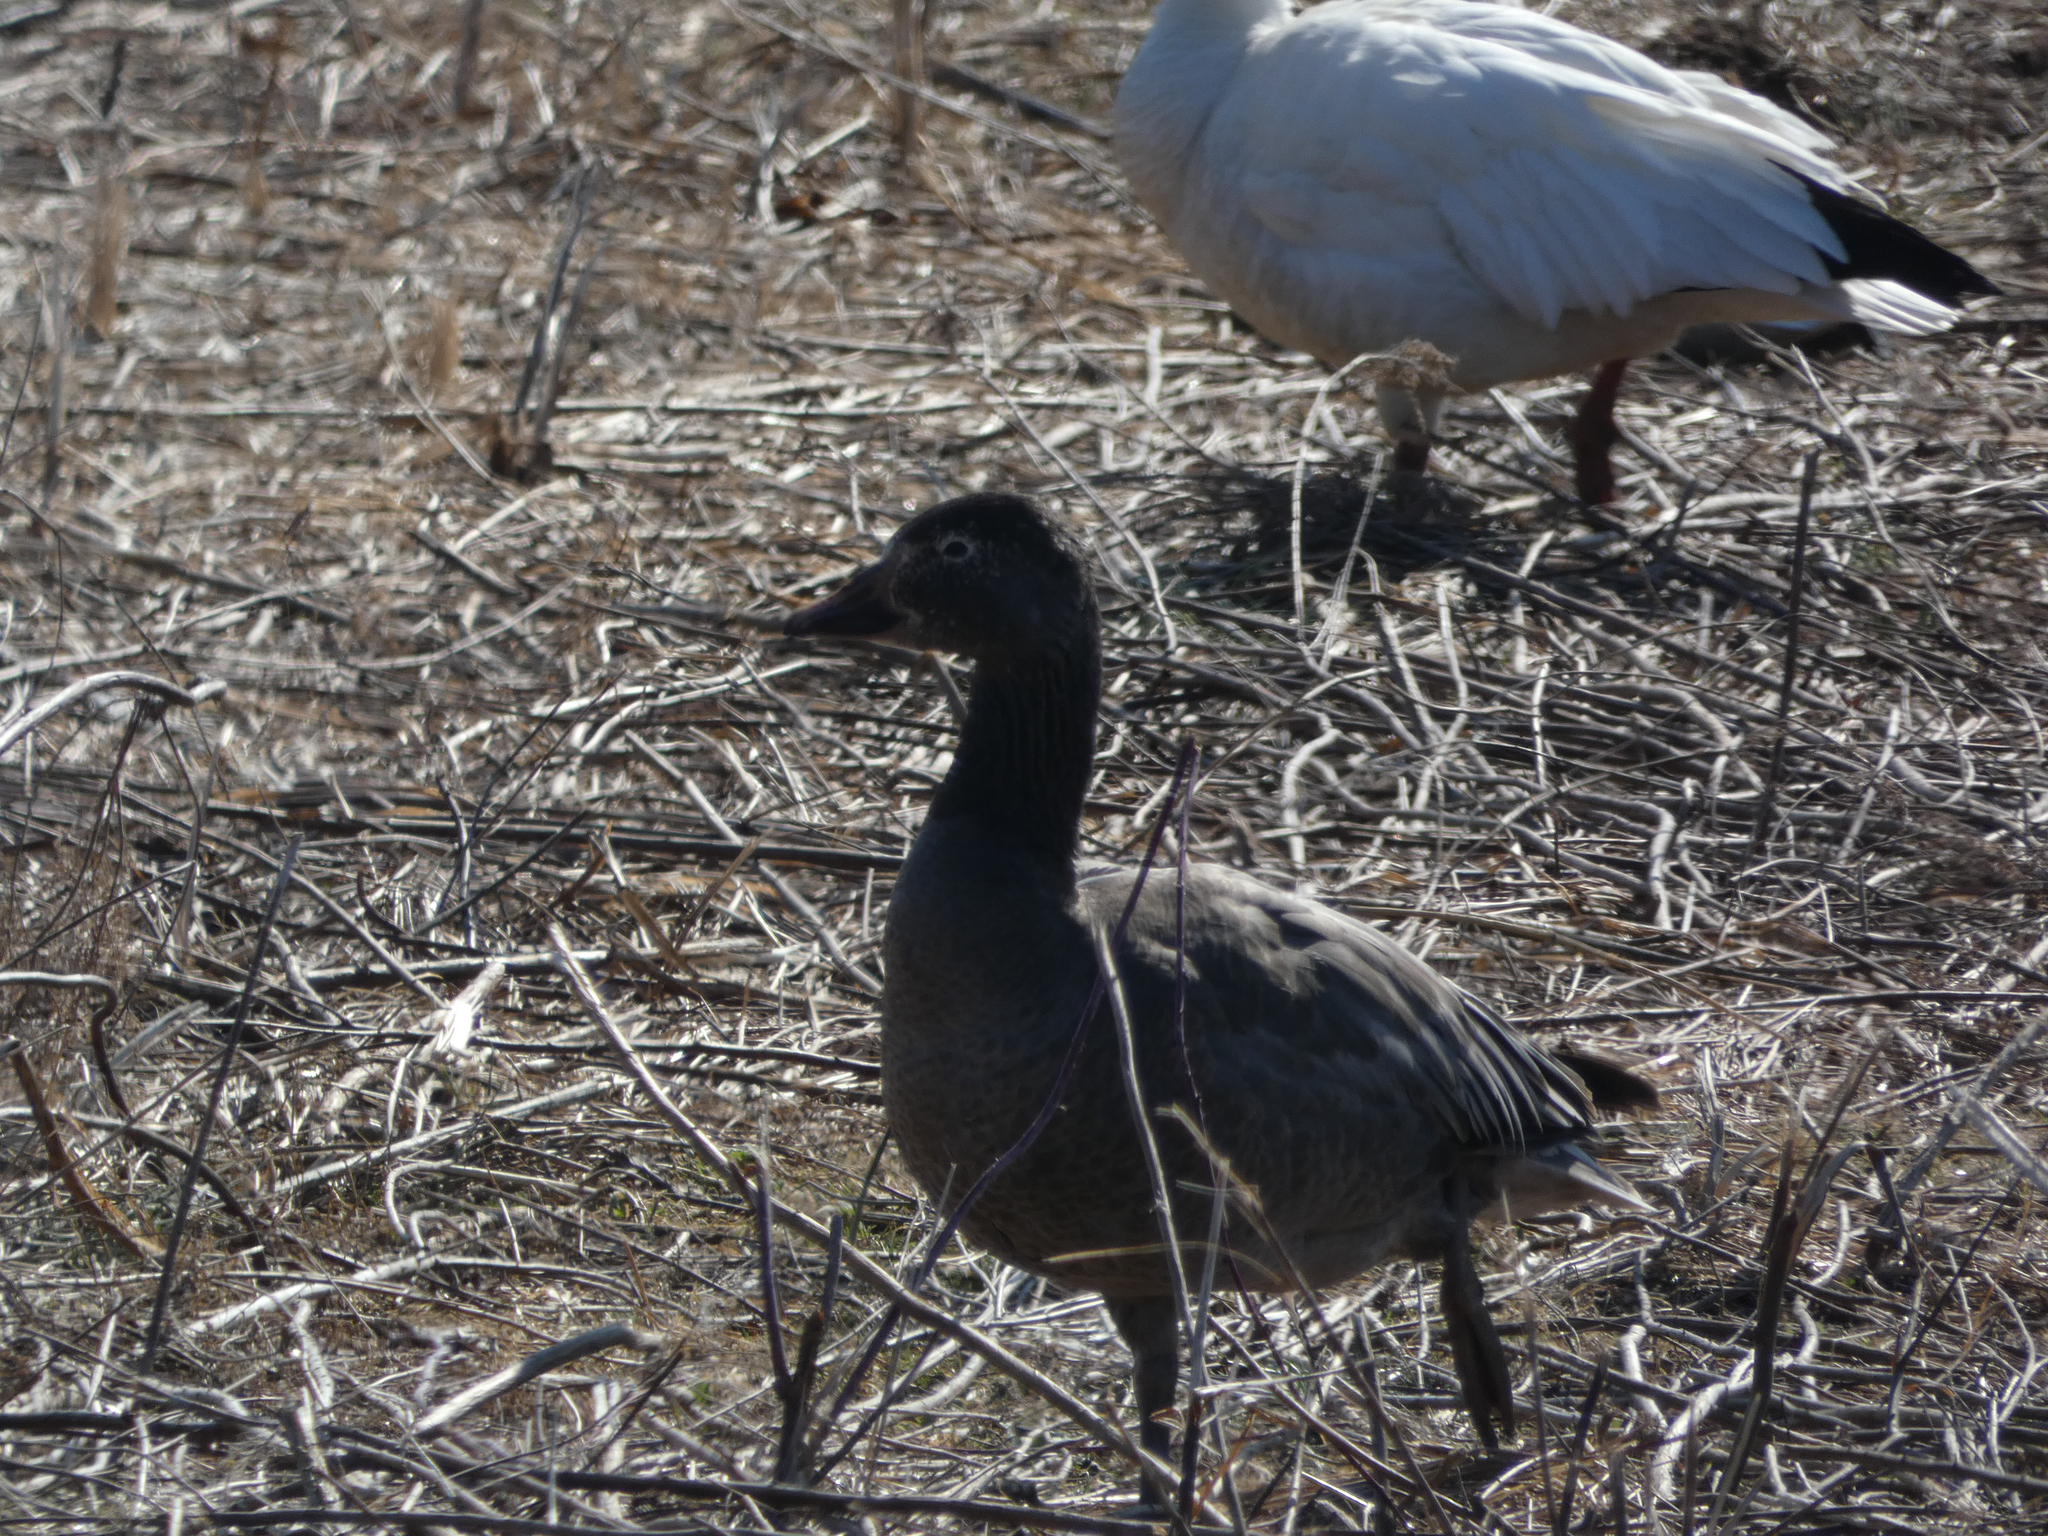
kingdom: Animalia
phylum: Chordata
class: Aves
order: Anseriformes
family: Anatidae
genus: Anser
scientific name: Anser caerulescens
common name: Snow goose
